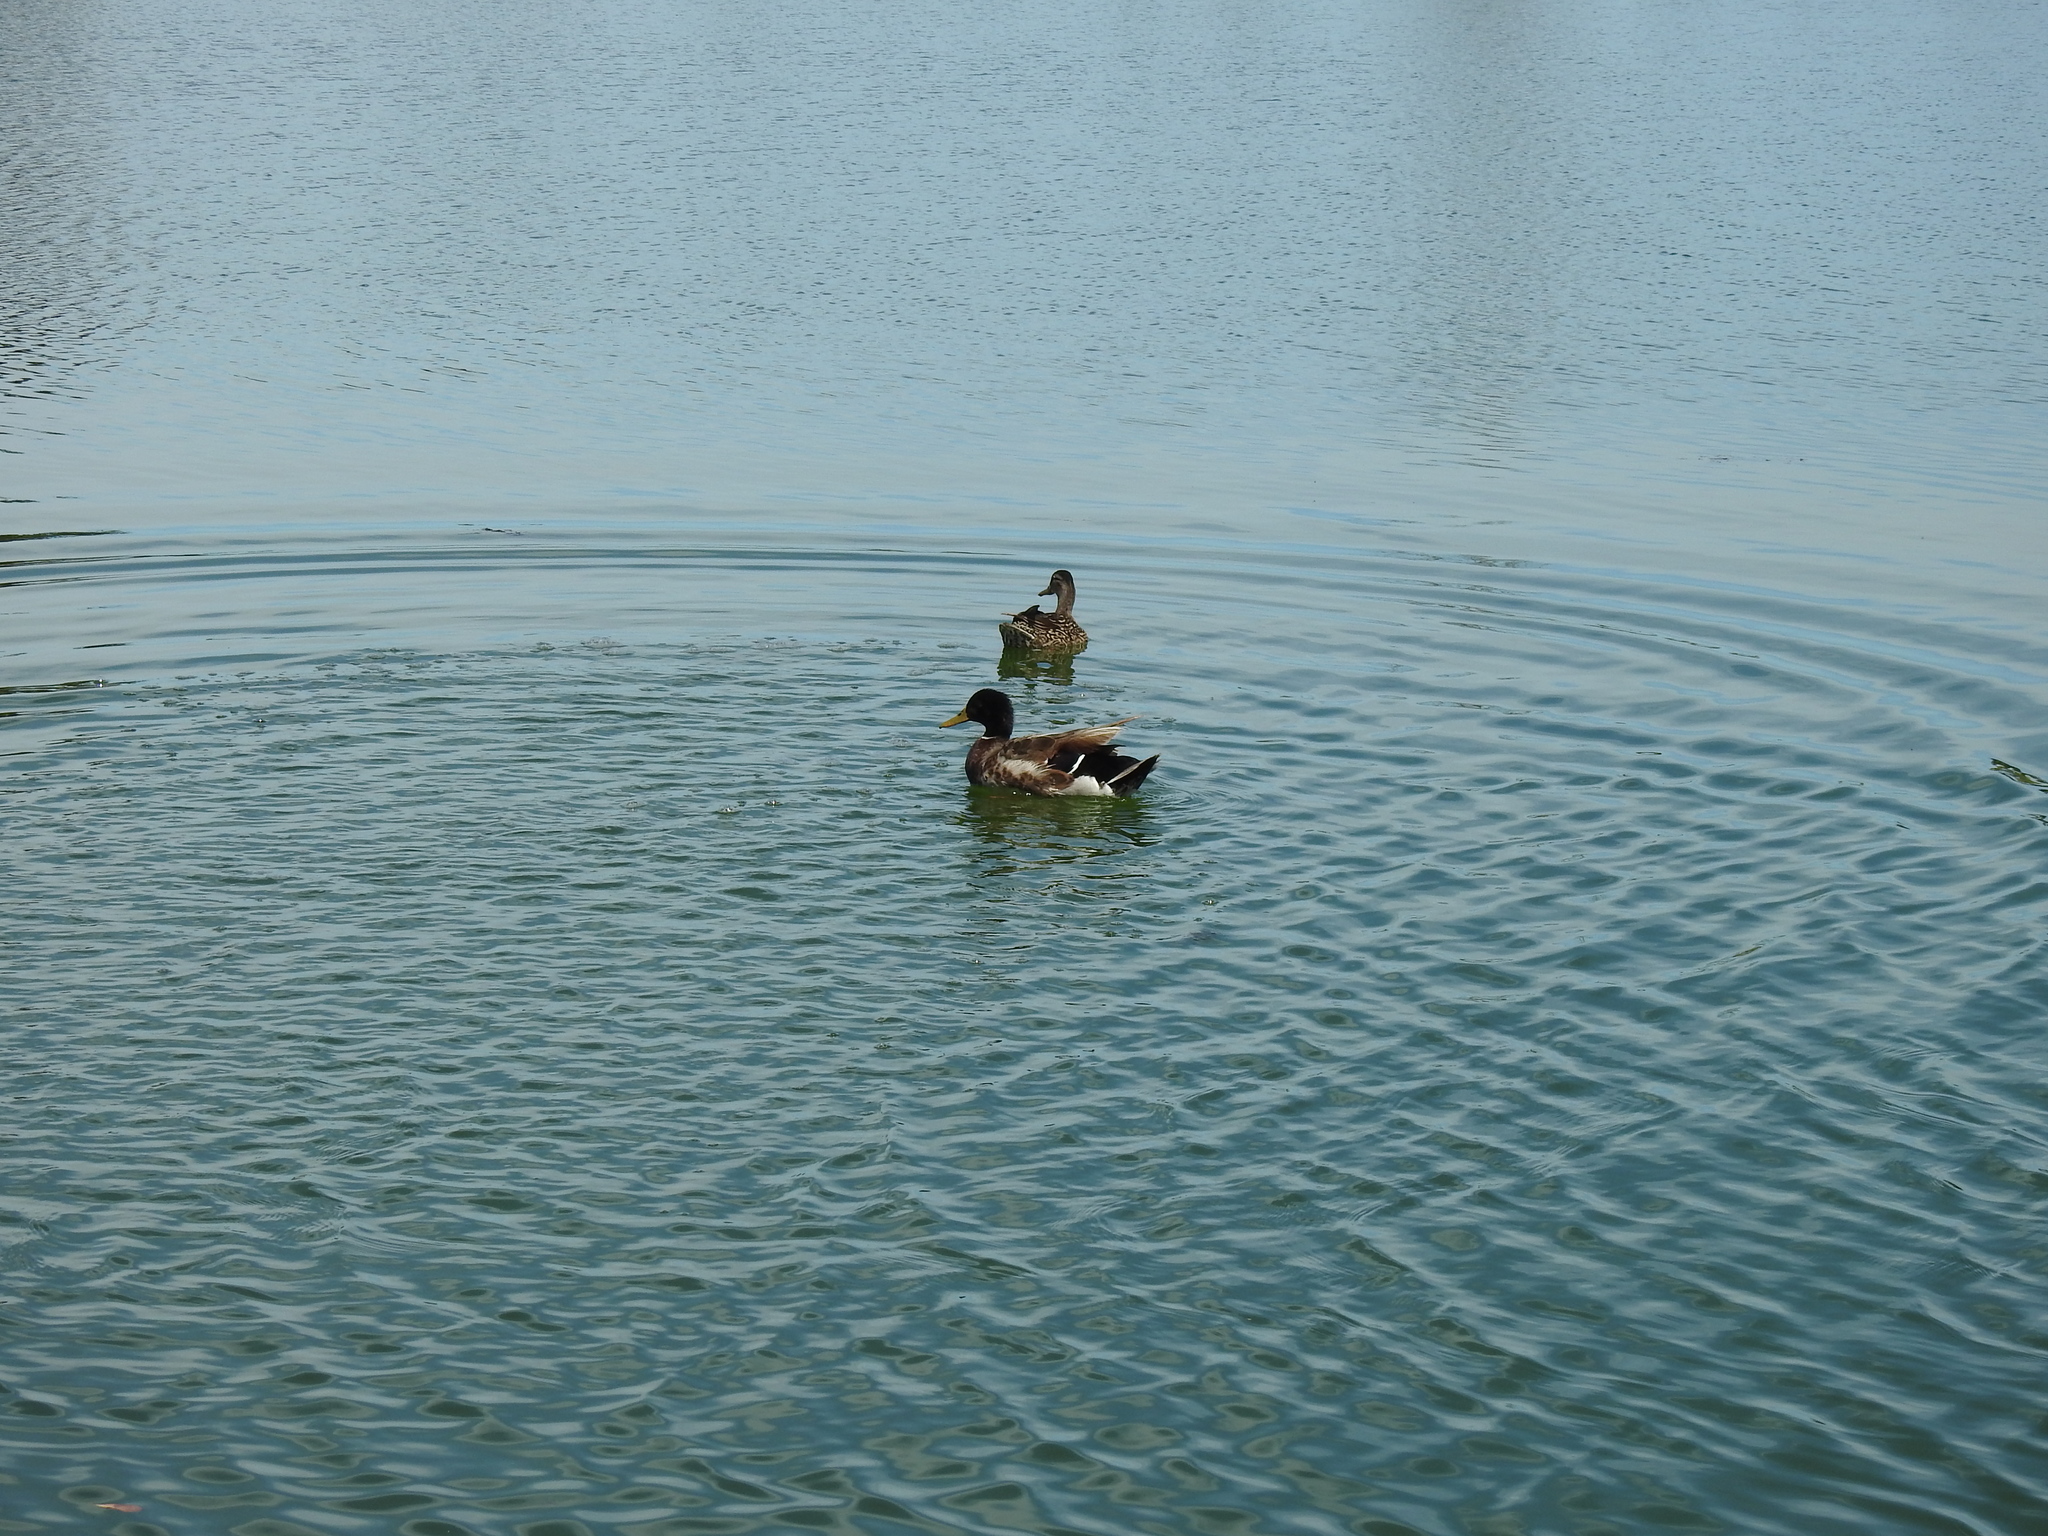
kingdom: Animalia
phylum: Chordata
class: Aves
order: Anseriformes
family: Anatidae
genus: Anas
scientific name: Anas platyrhynchos
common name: Mallard
